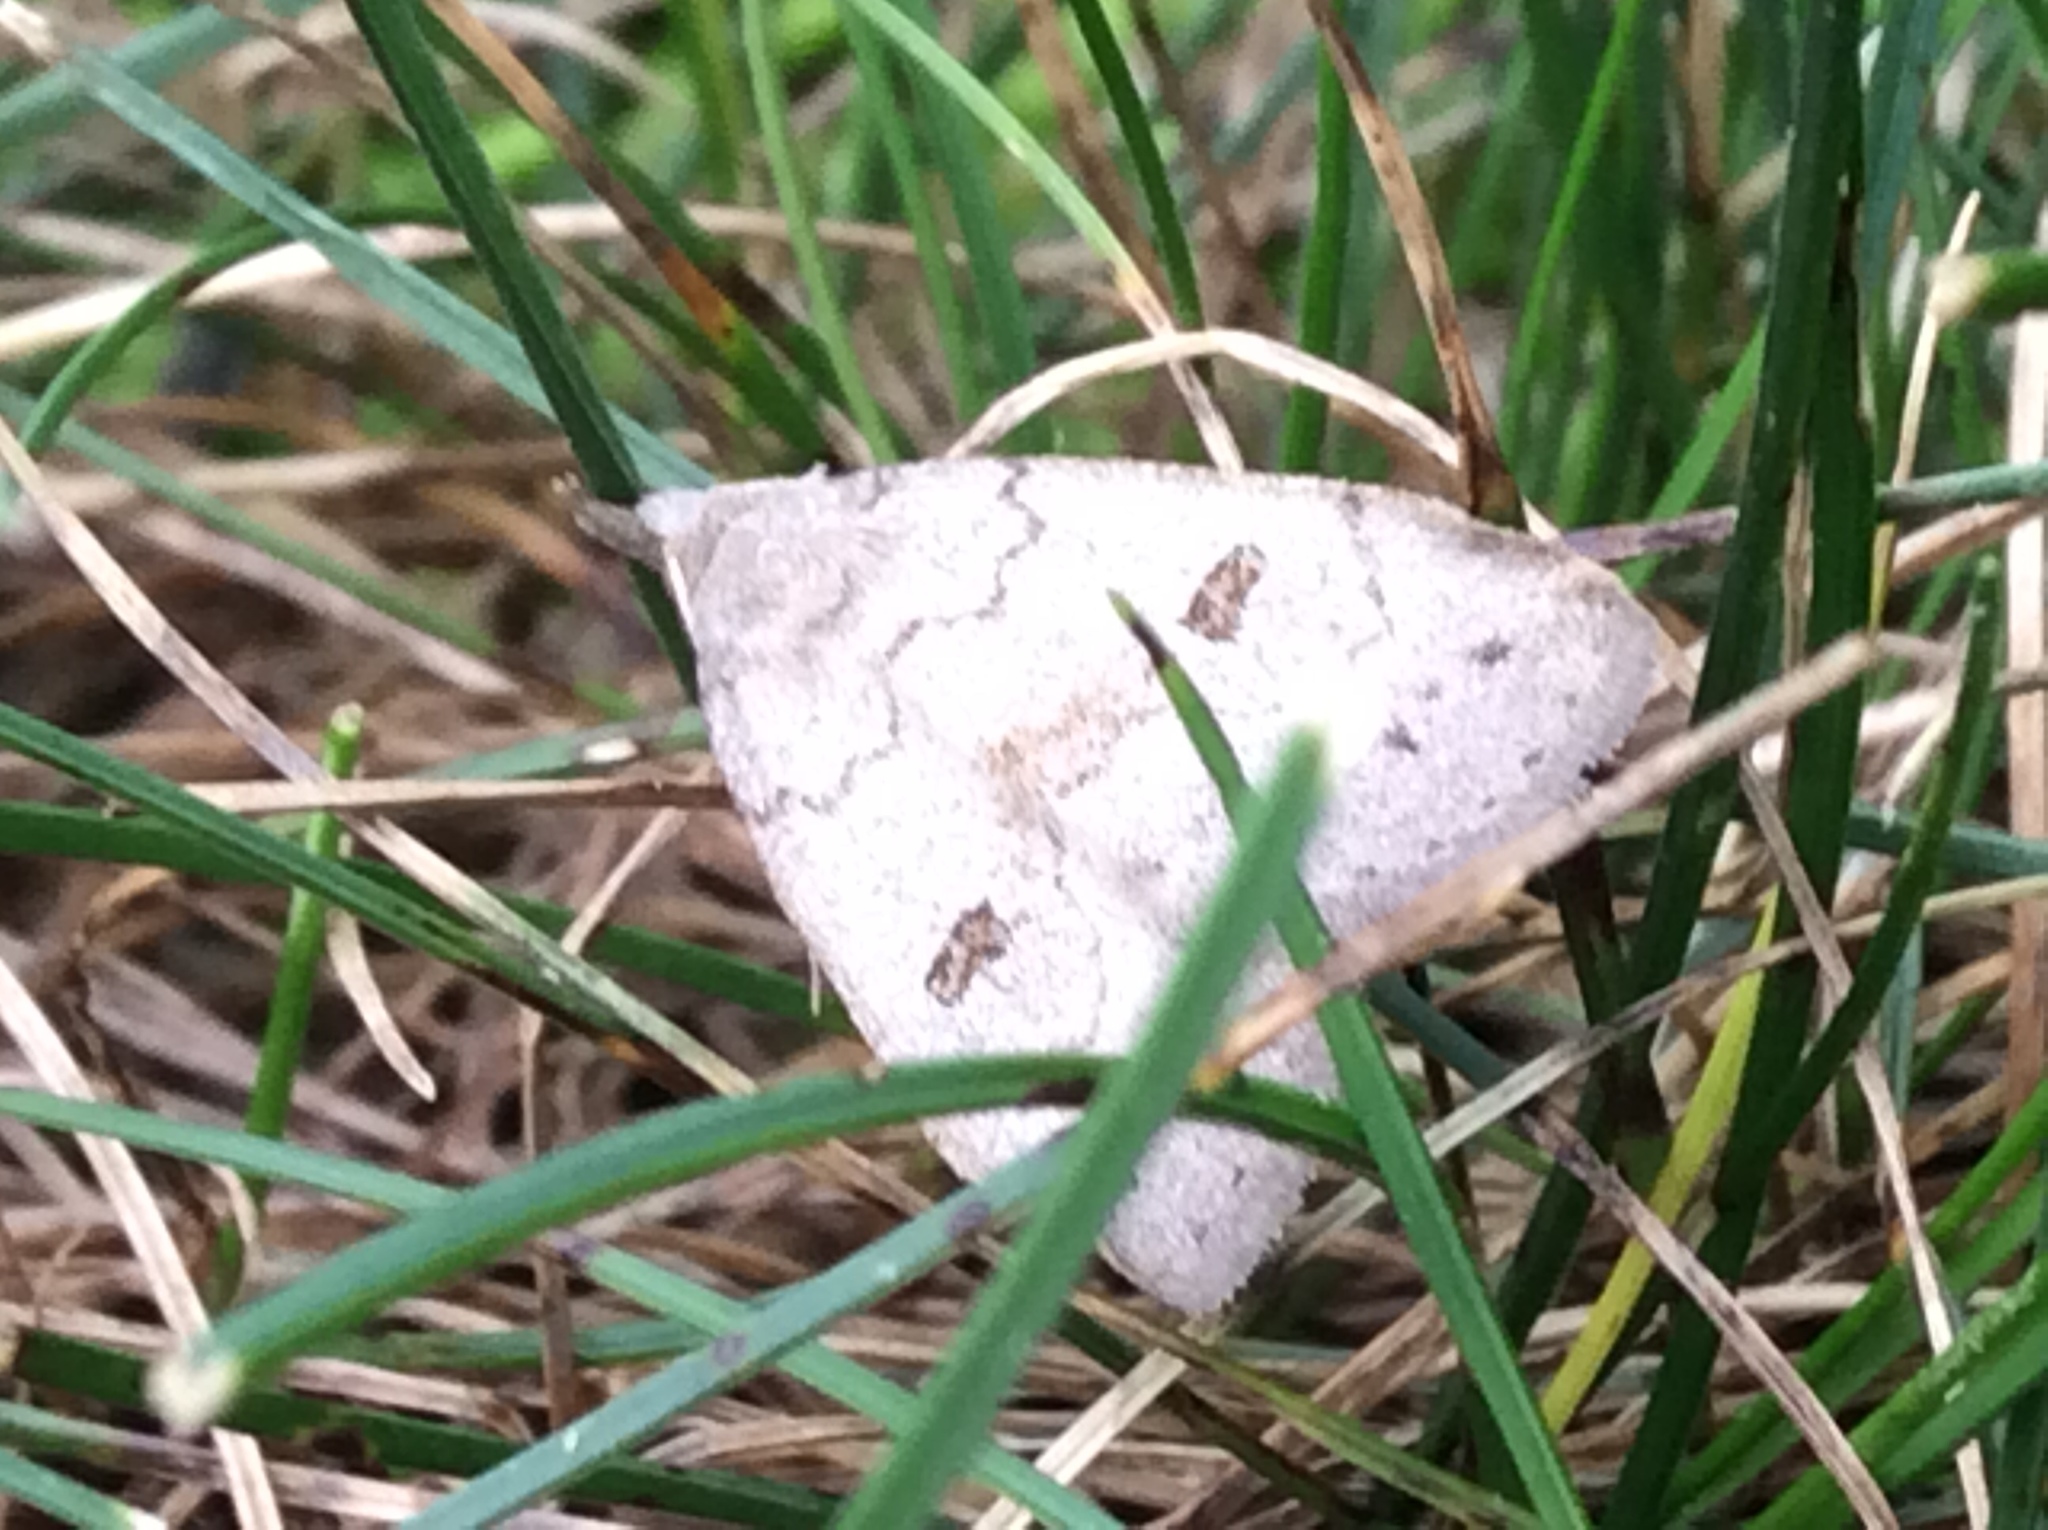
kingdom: Animalia
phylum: Arthropoda
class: Insecta
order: Lepidoptera
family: Erebidae
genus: Macrochilo
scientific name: Macrochilo morbidalis
